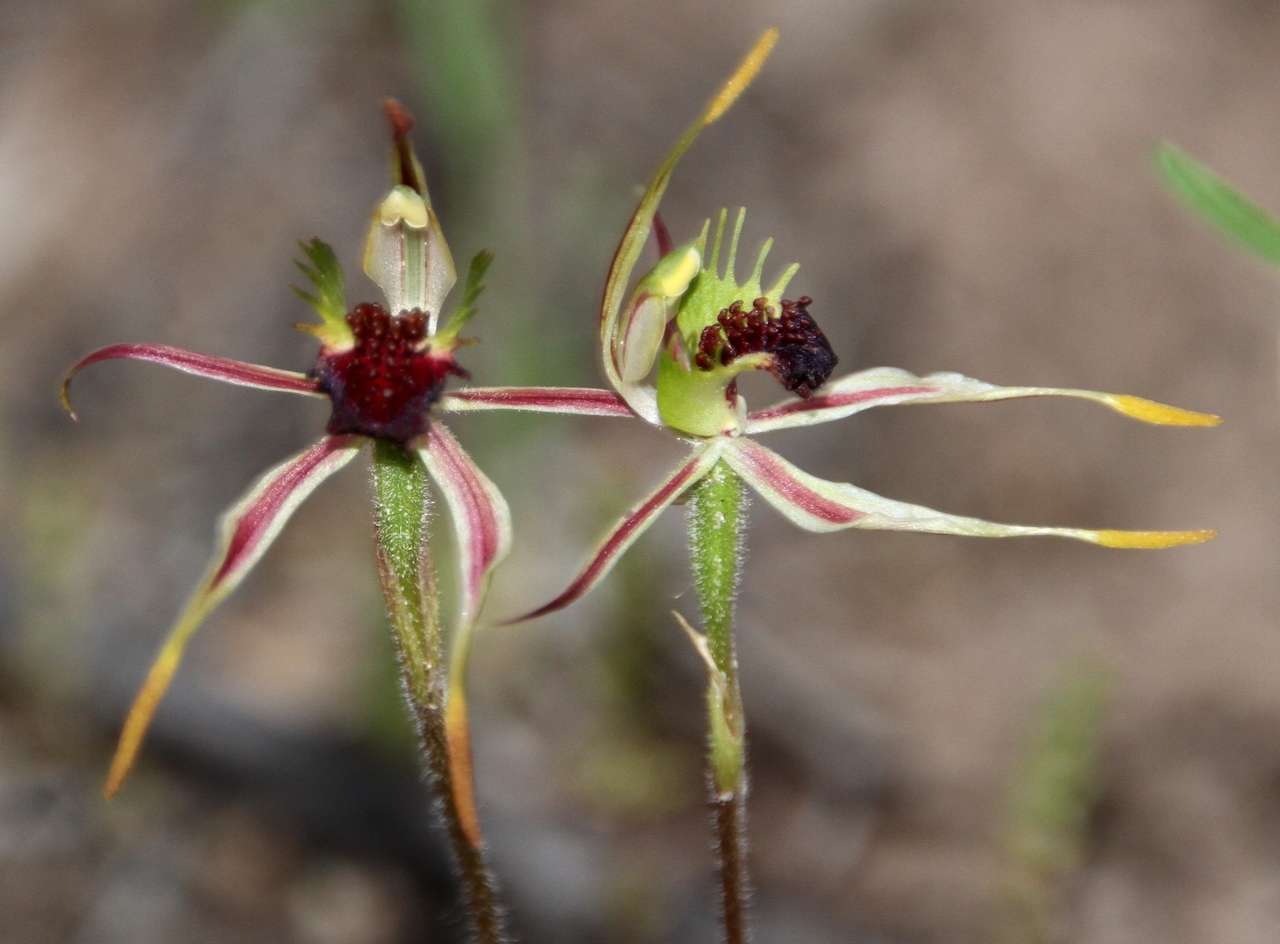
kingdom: Plantae
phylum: Tracheophyta
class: Liliopsida
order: Asparagales
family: Orchidaceae
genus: Caladenia
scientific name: Caladenia verrucosa
